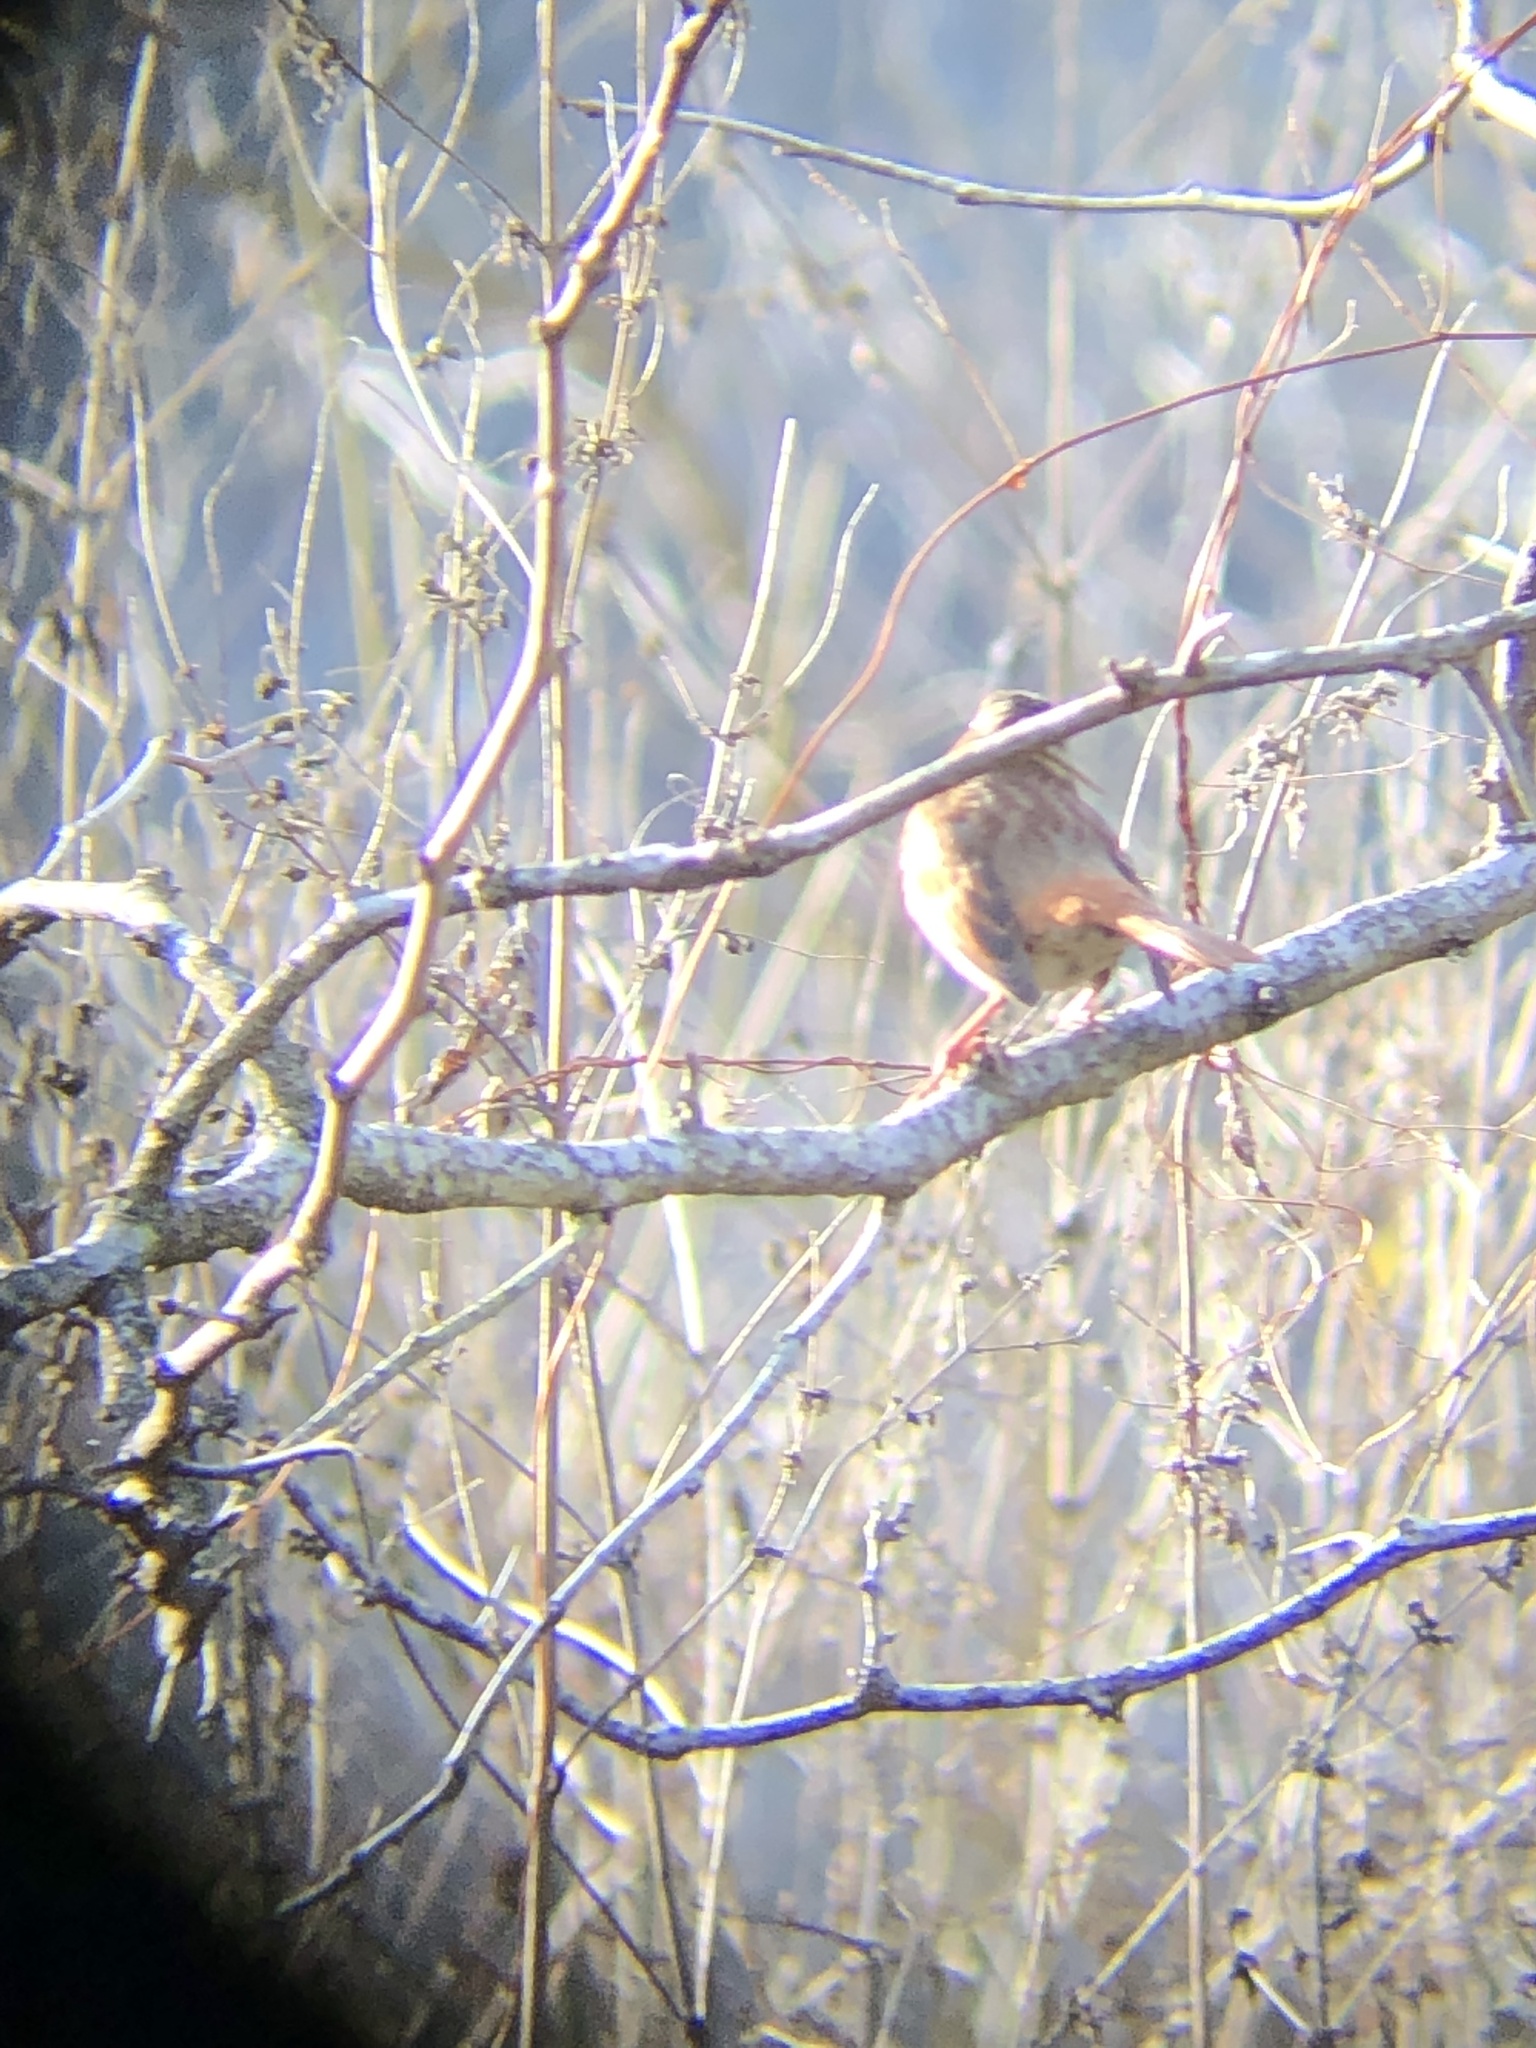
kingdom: Animalia
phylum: Chordata
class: Aves
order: Passeriformes
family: Passerellidae
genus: Passerella
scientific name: Passerella iliaca
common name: Fox sparrow
